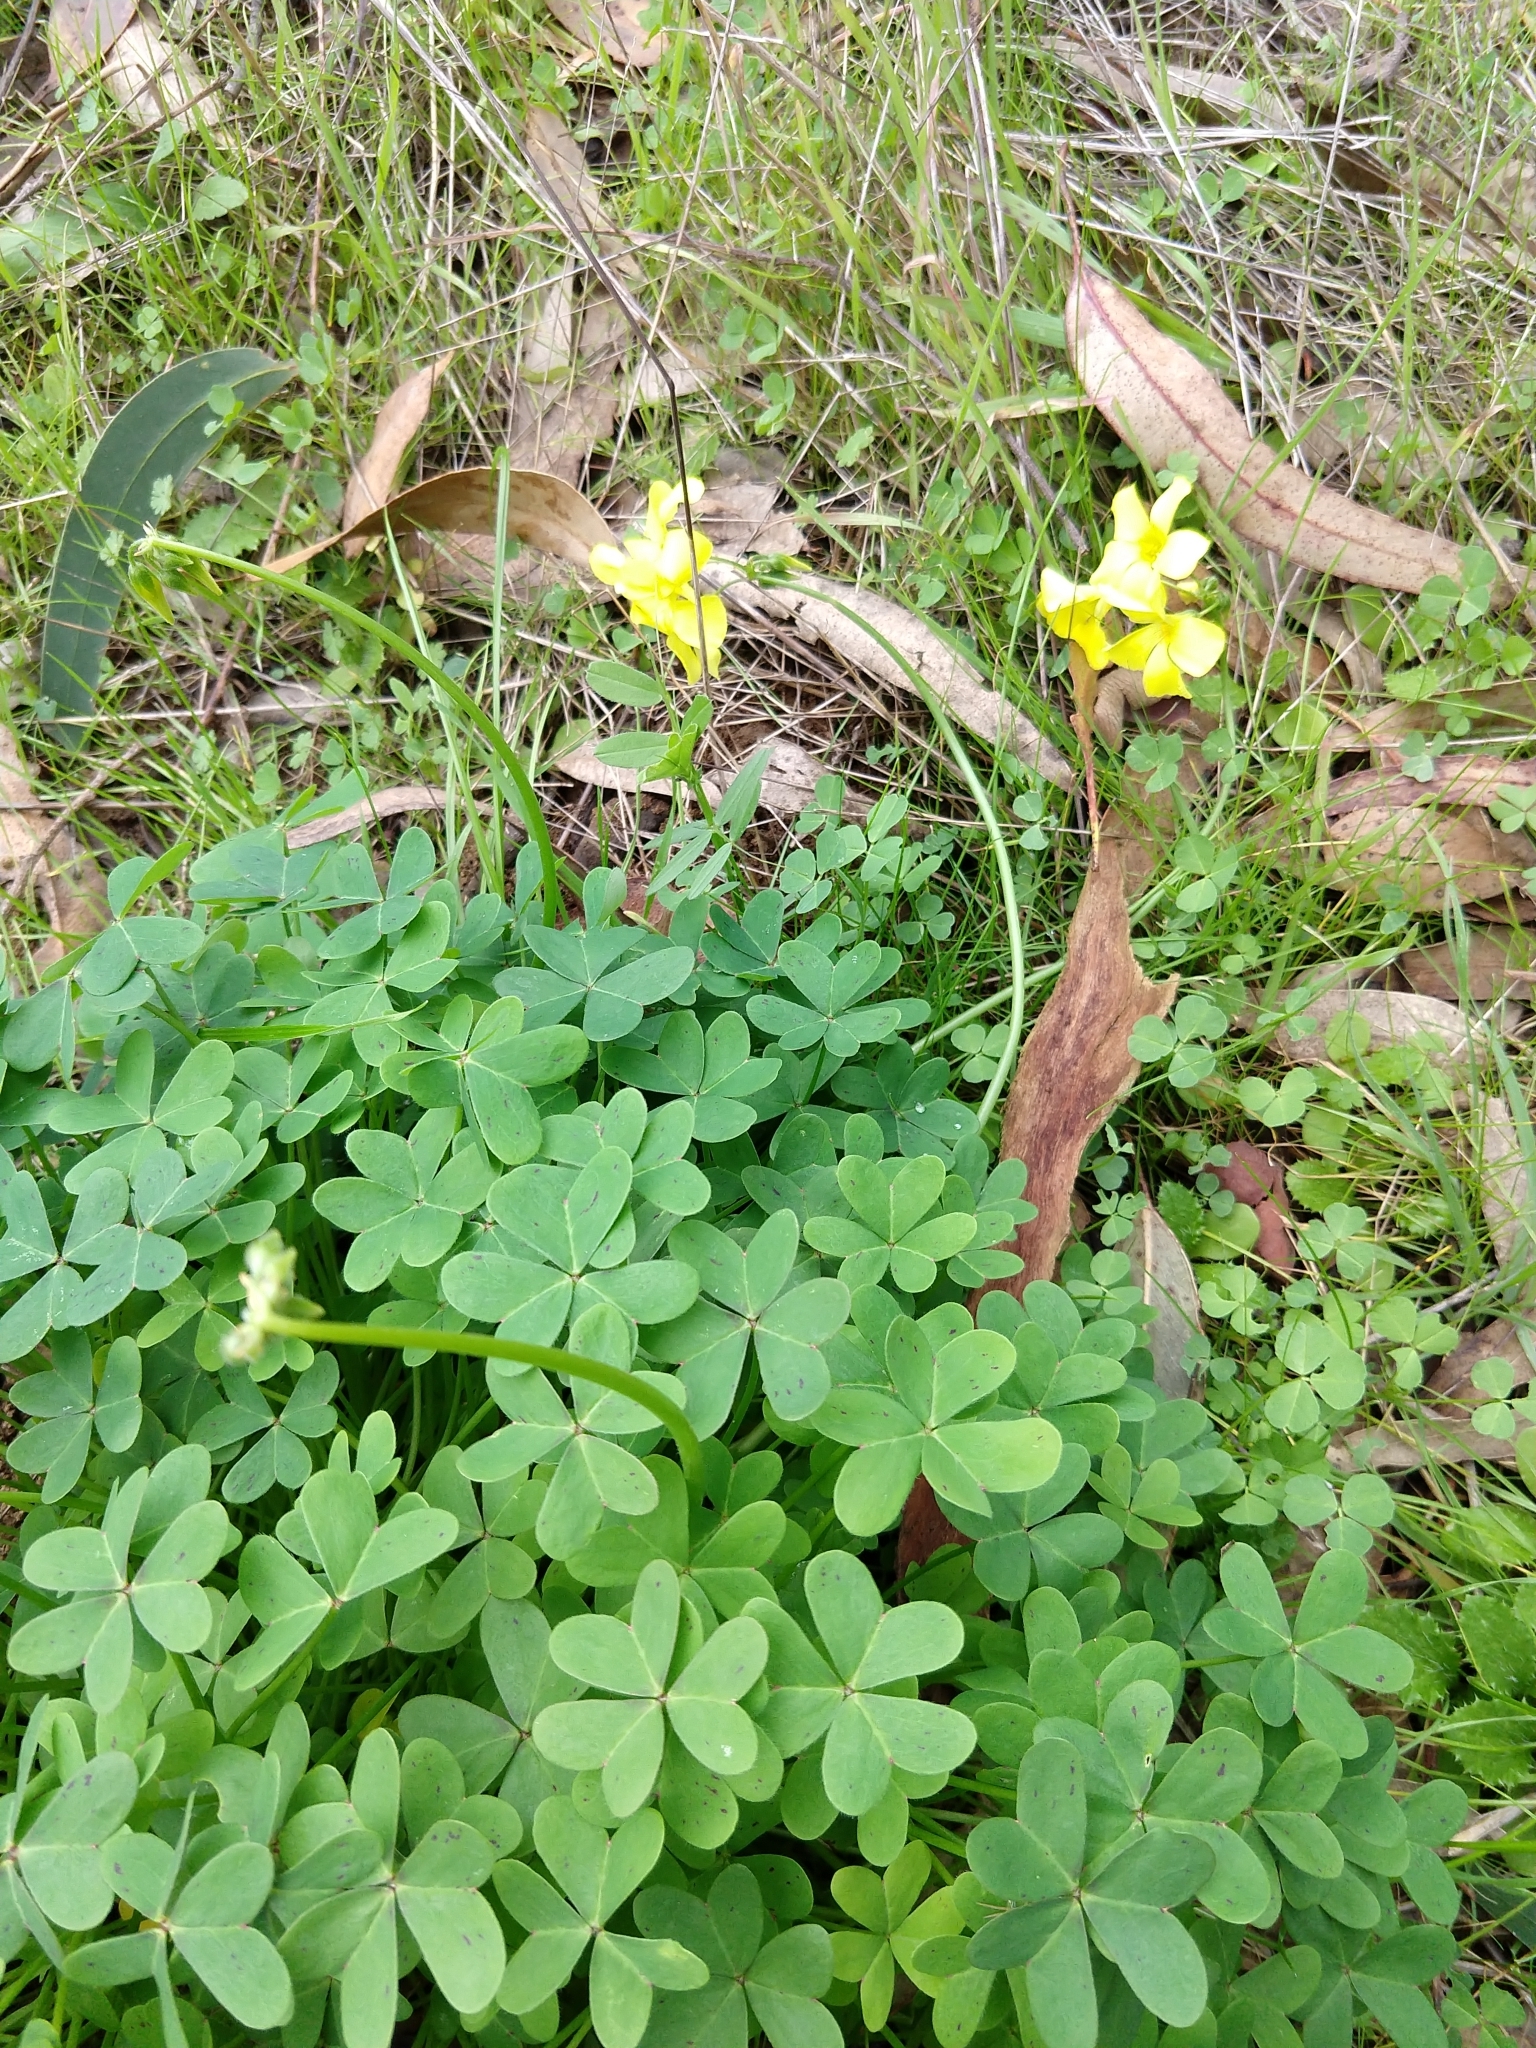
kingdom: Plantae
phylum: Tracheophyta
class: Magnoliopsida
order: Oxalidales
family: Oxalidaceae
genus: Oxalis
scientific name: Oxalis pes-caprae
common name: Bermuda-buttercup
